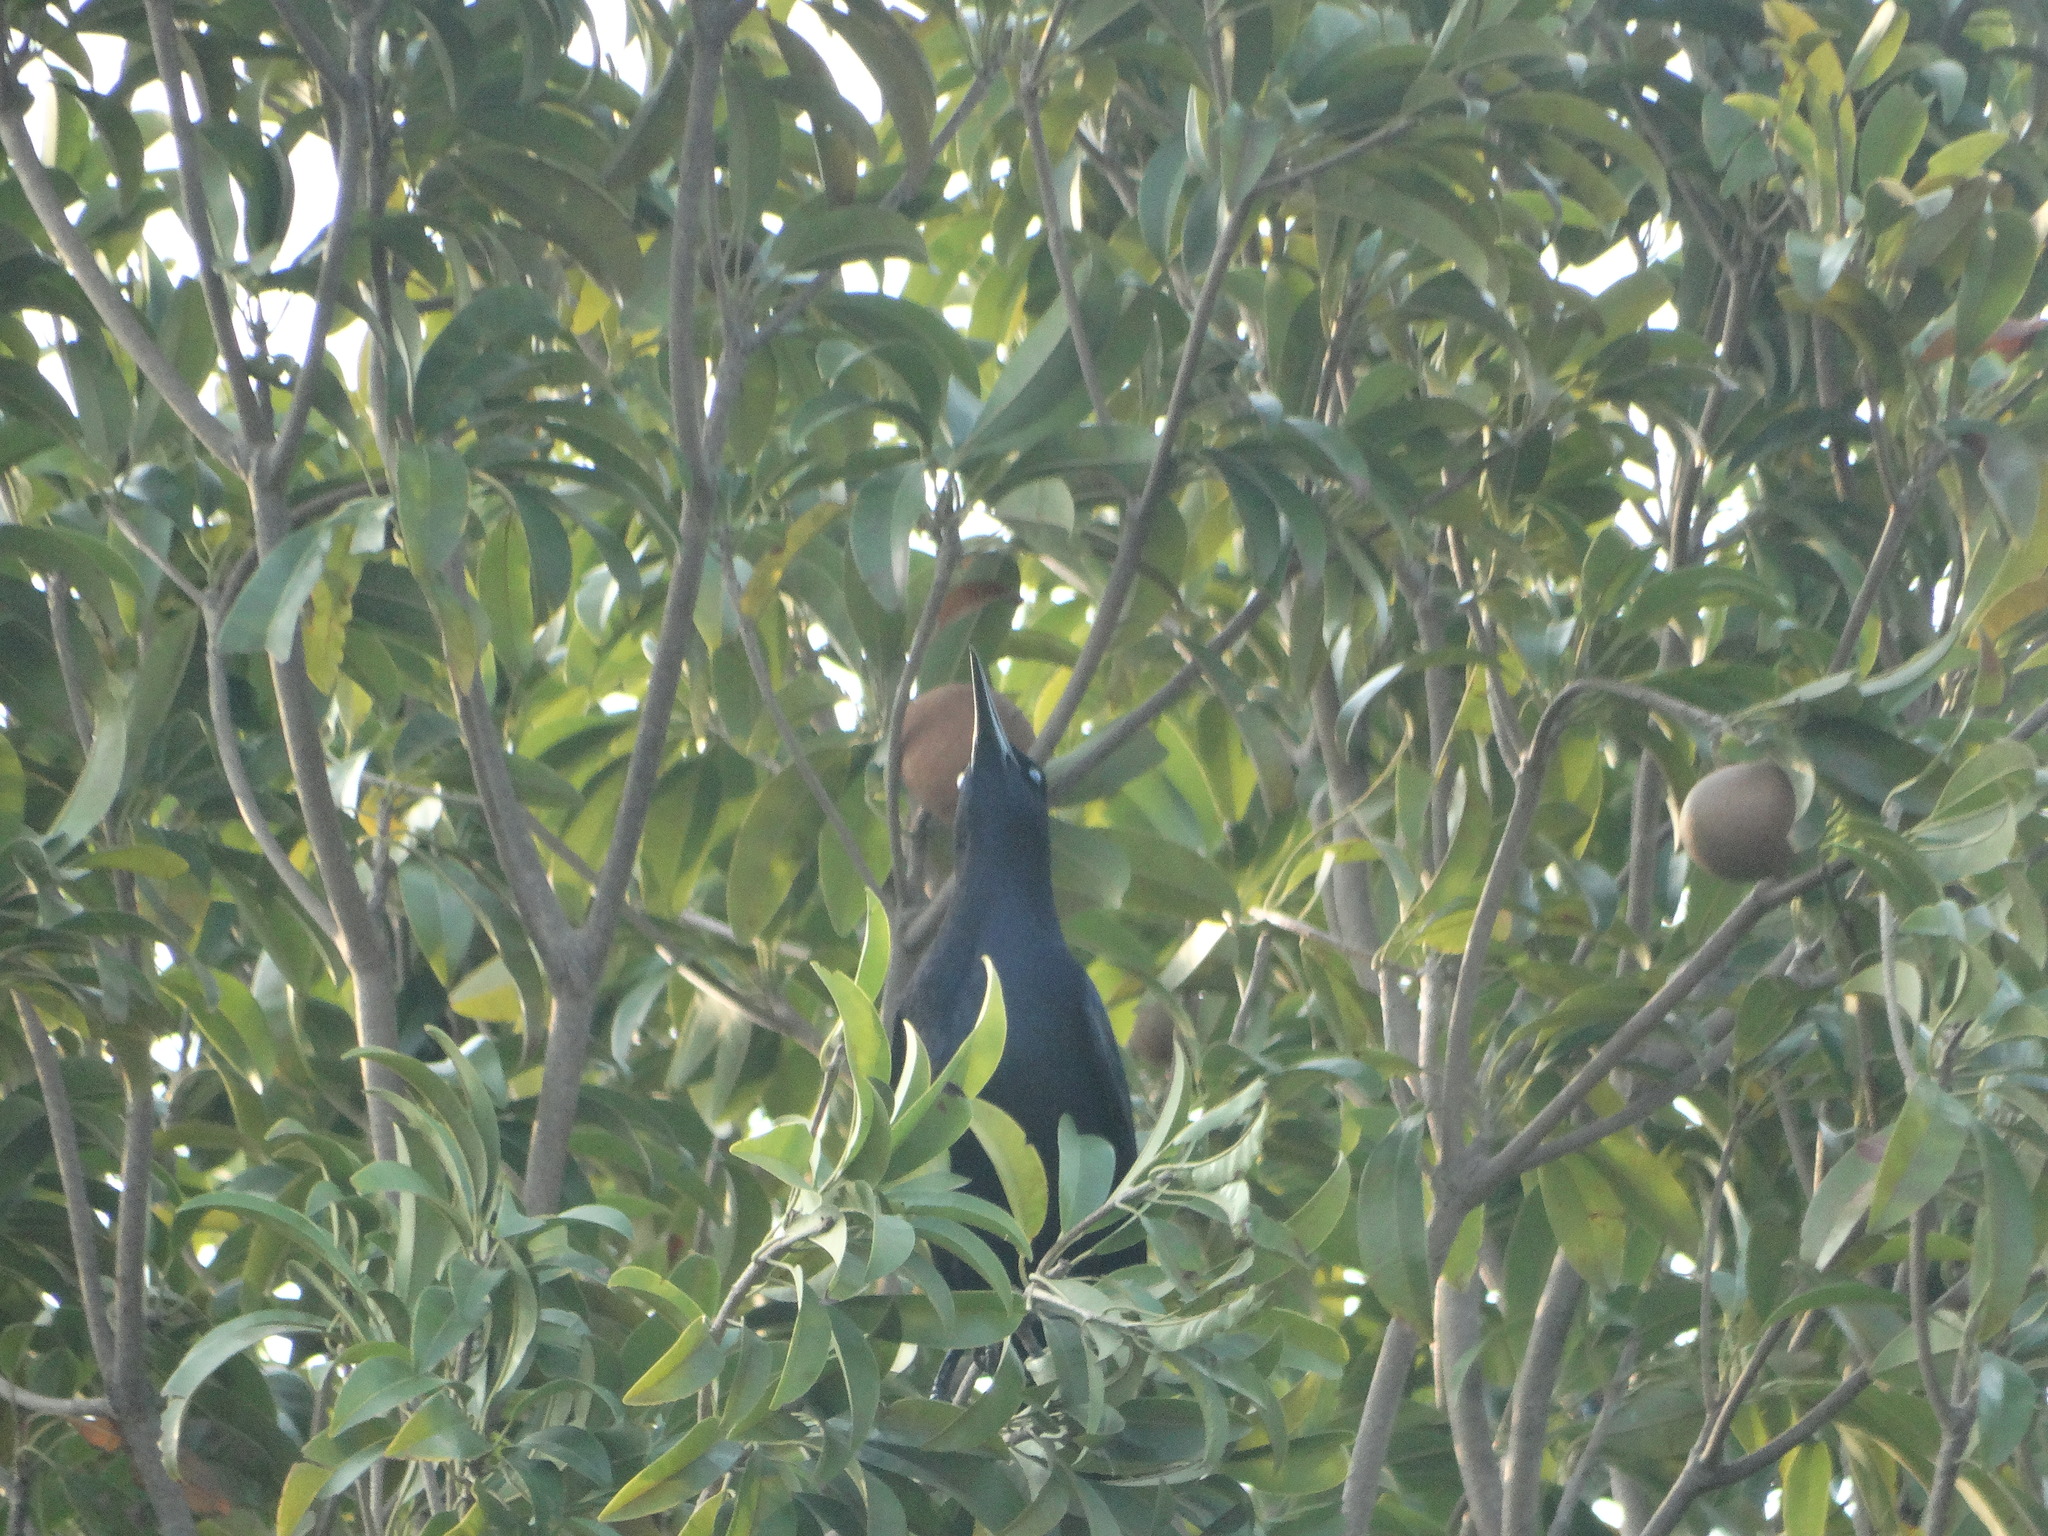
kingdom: Animalia
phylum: Chordata
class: Aves
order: Passeriformes
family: Icteridae
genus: Quiscalus
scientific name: Quiscalus mexicanus
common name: Great-tailed grackle
